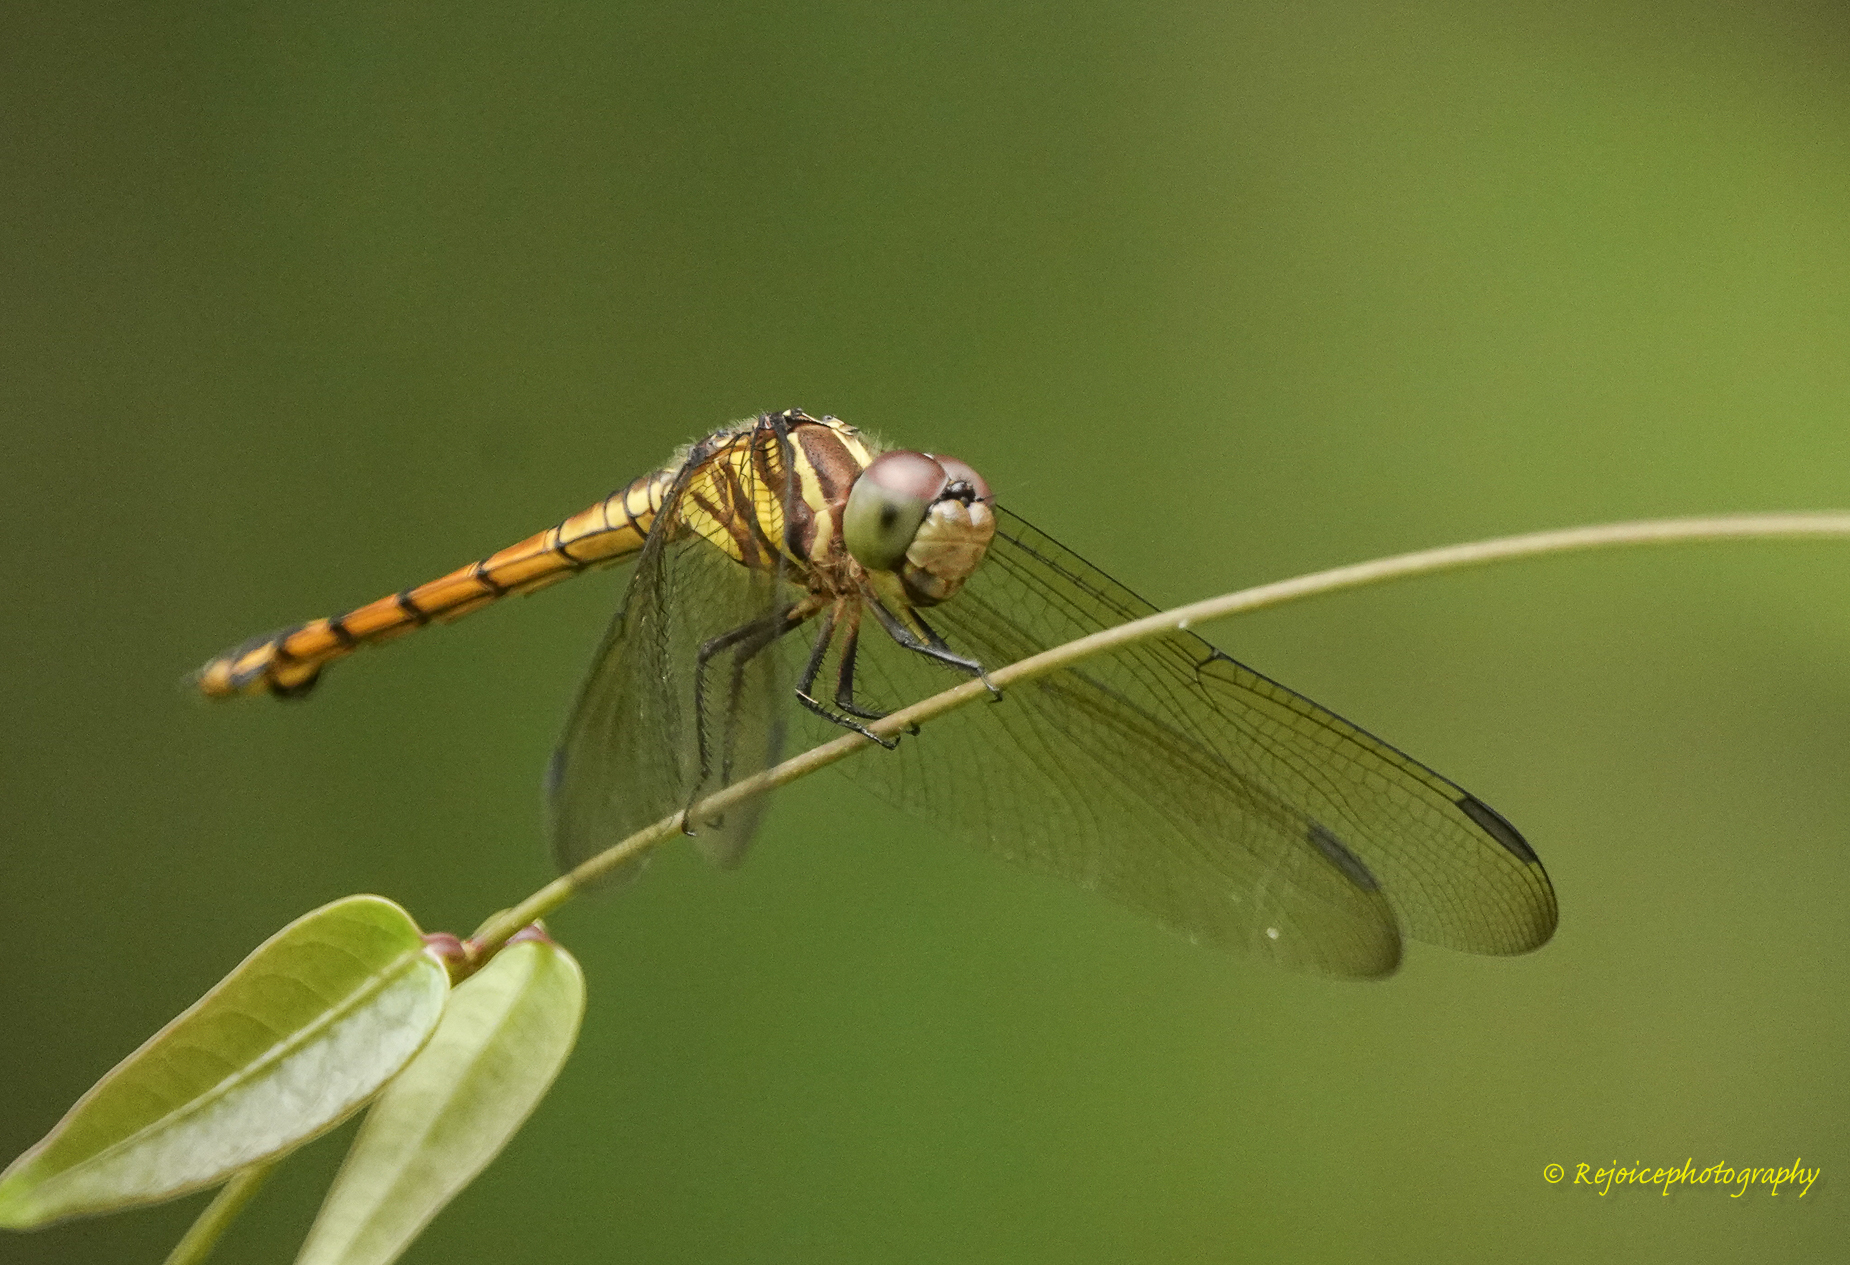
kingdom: Animalia
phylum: Arthropoda
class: Insecta
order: Odonata
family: Libellulidae
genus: Potamarcha
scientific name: Potamarcha congener
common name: Blue chaser
